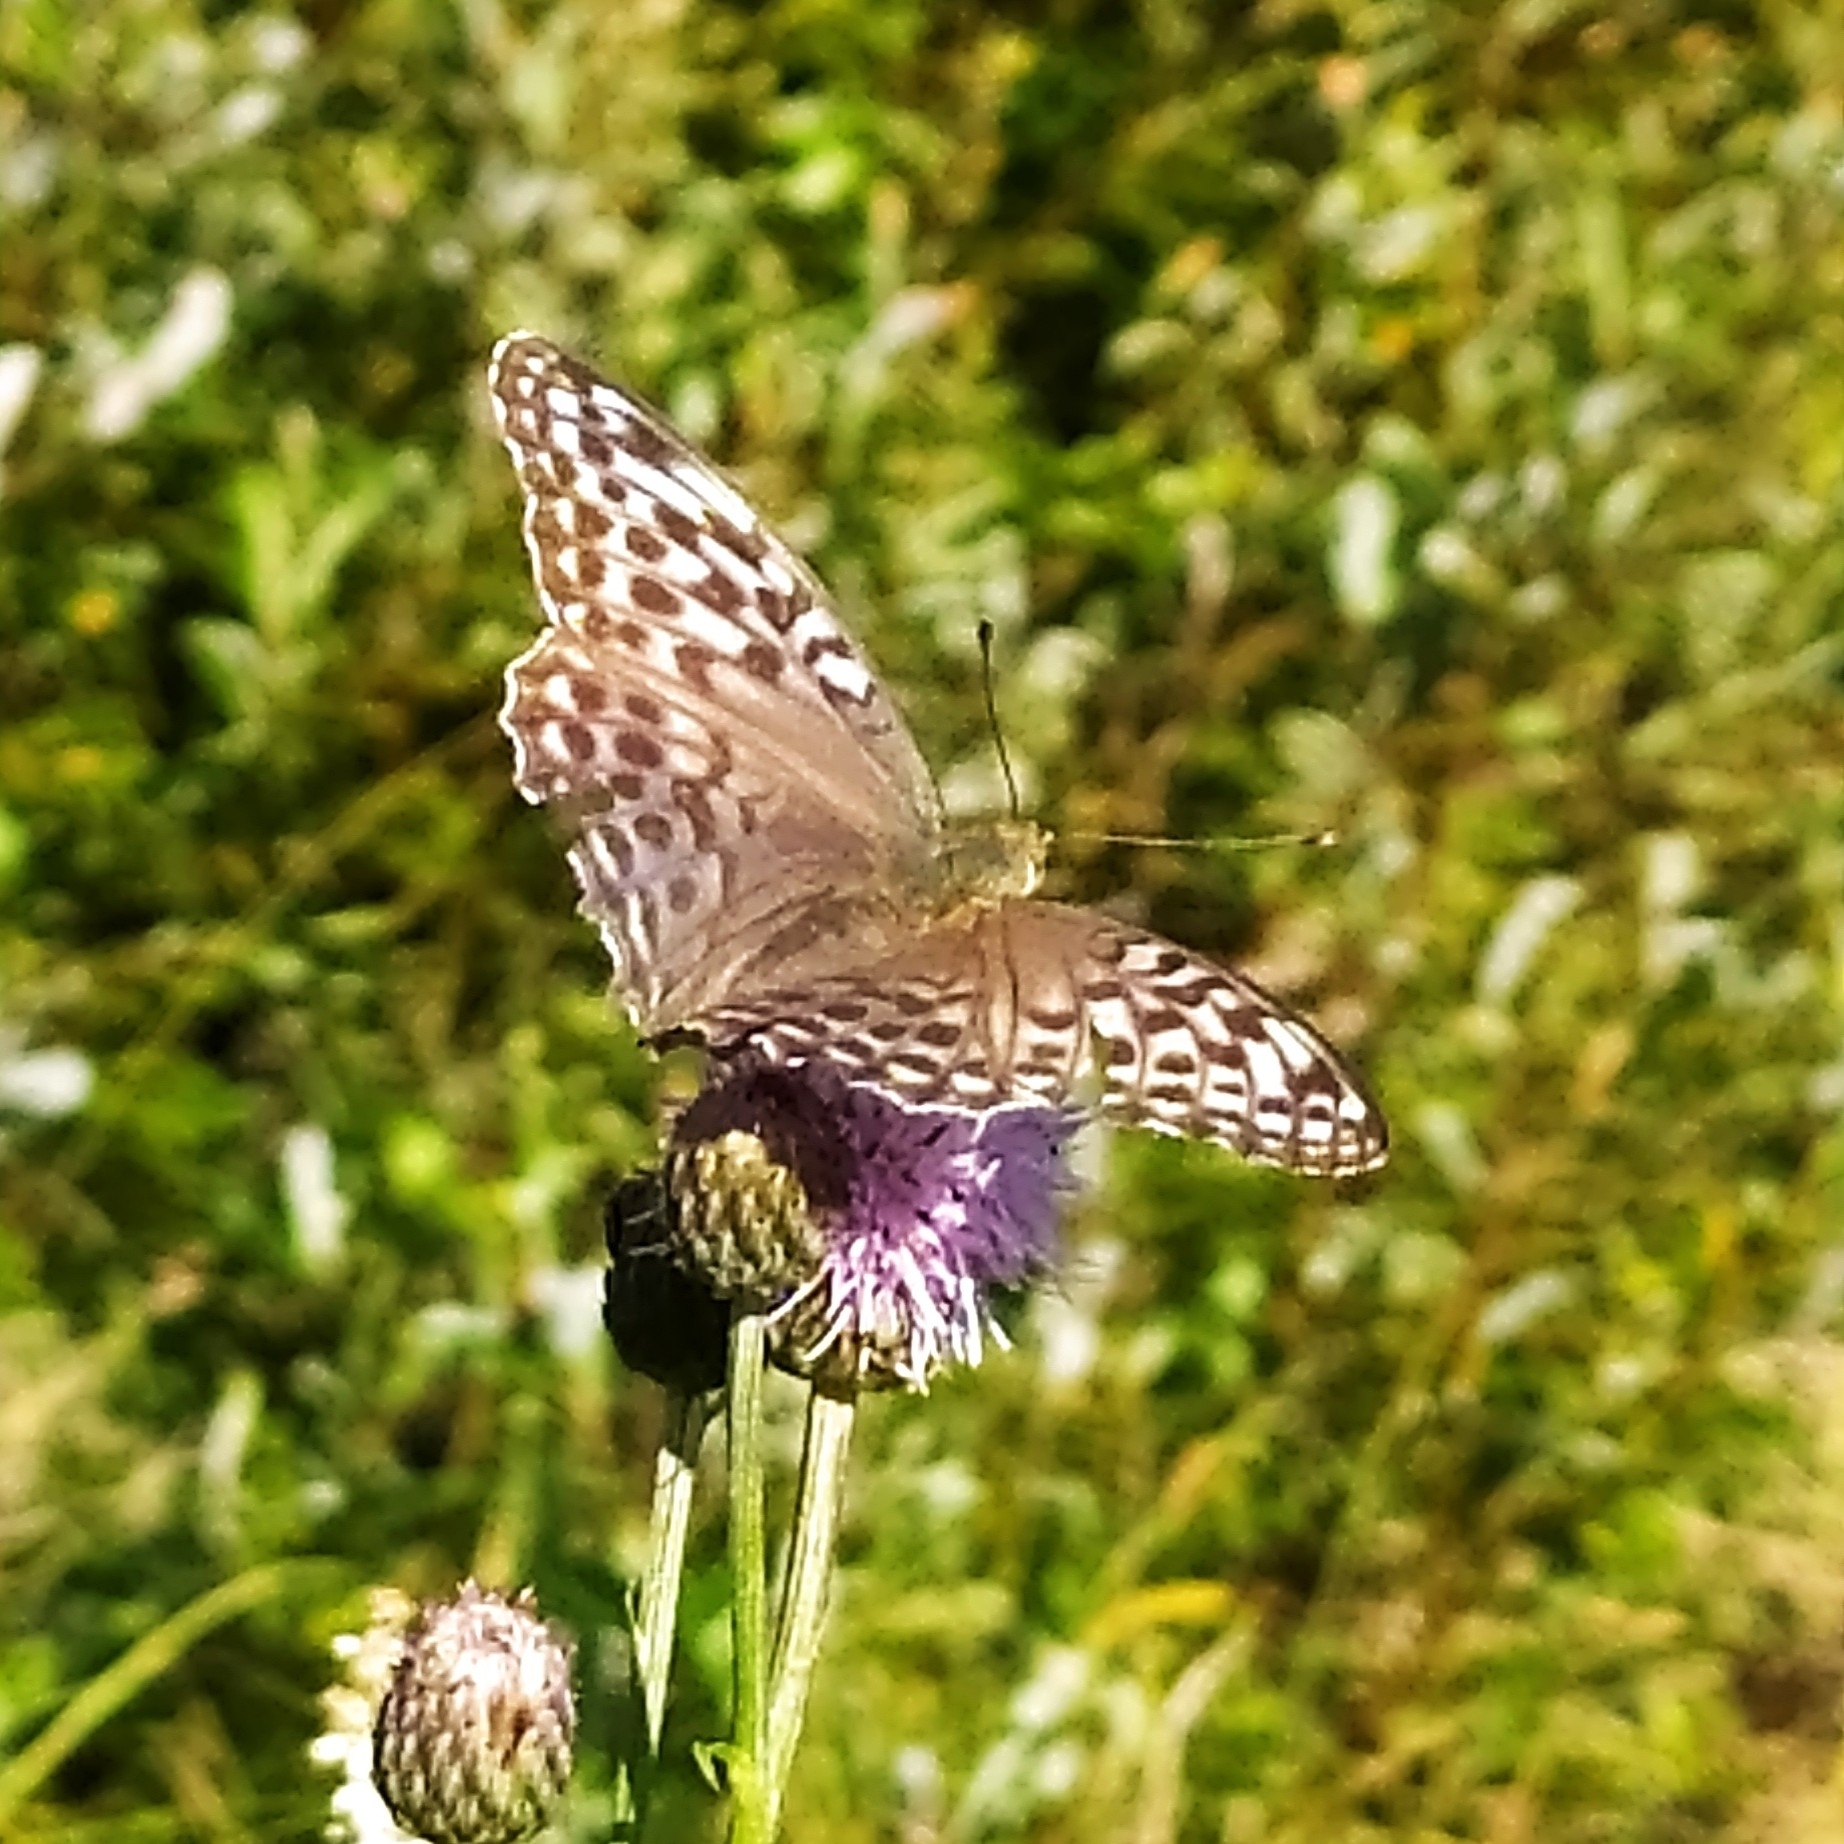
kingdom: Animalia
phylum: Arthropoda
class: Insecta
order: Lepidoptera
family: Nymphalidae
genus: Argynnis
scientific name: Argynnis paphia
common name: Silver-washed fritillary
